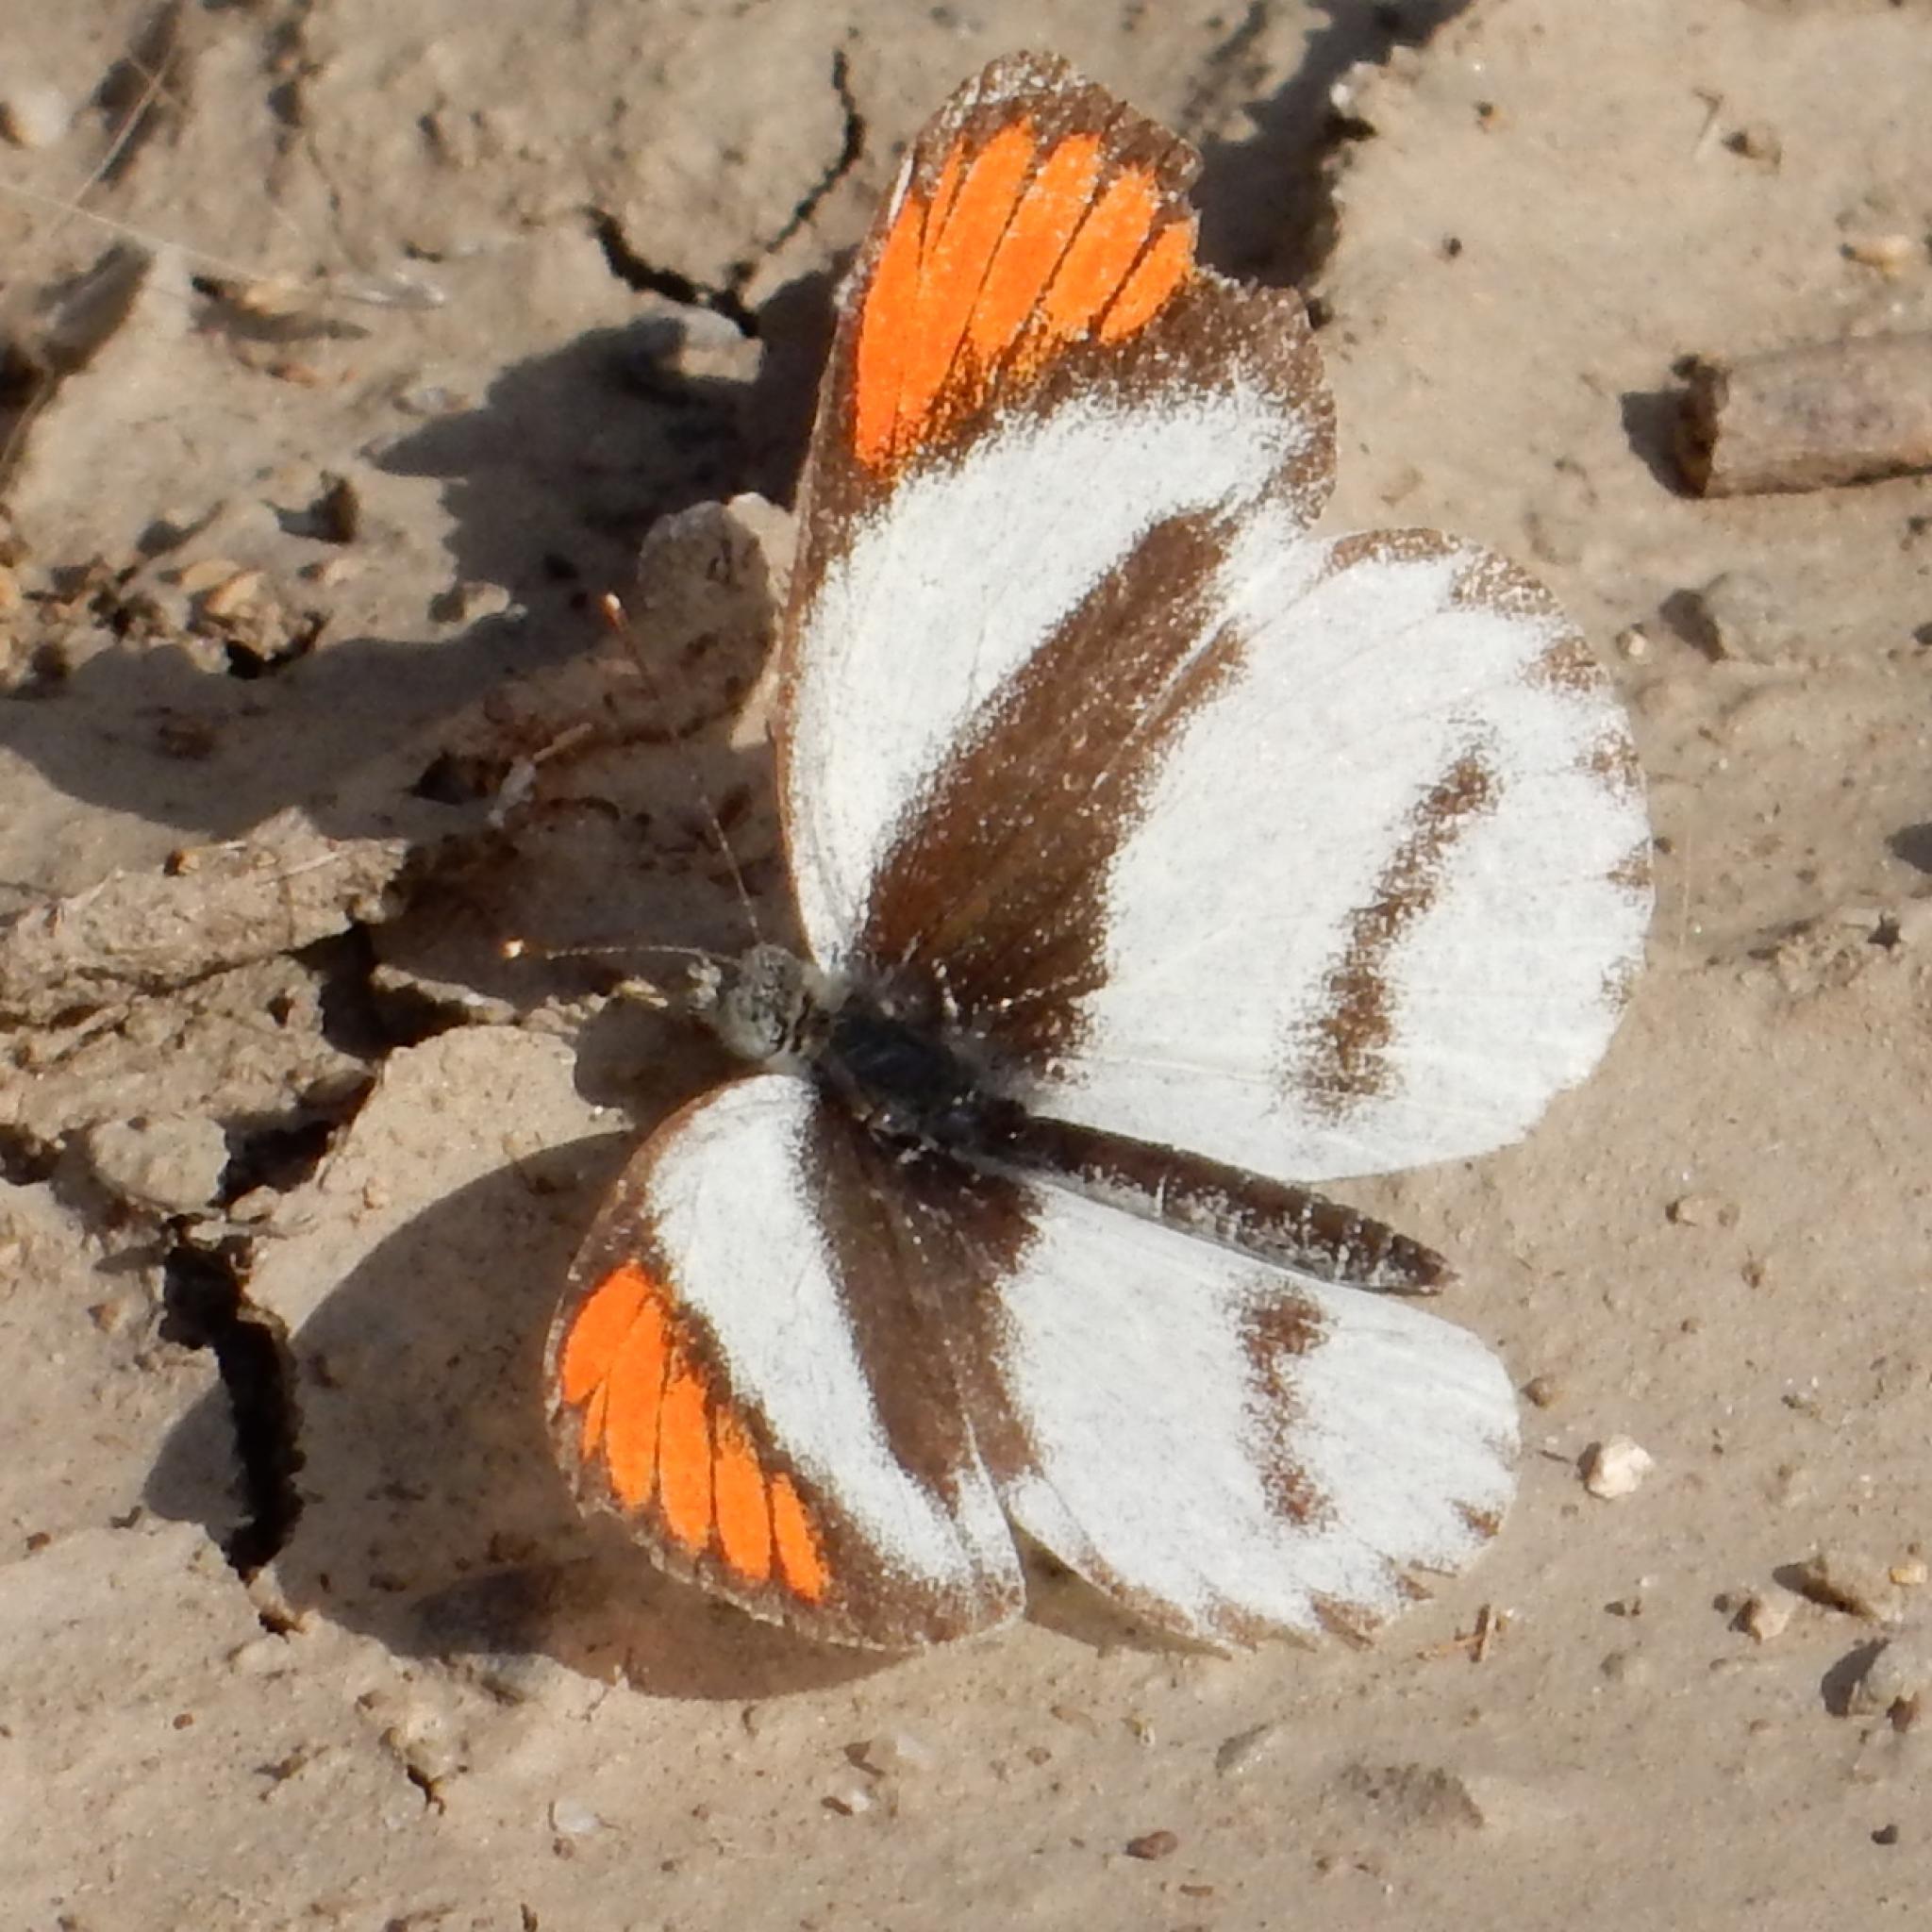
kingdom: Animalia
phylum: Arthropoda
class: Insecta
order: Lepidoptera
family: Pieridae
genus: Colotis
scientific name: Colotis euippe
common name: Round-winged orange tip
